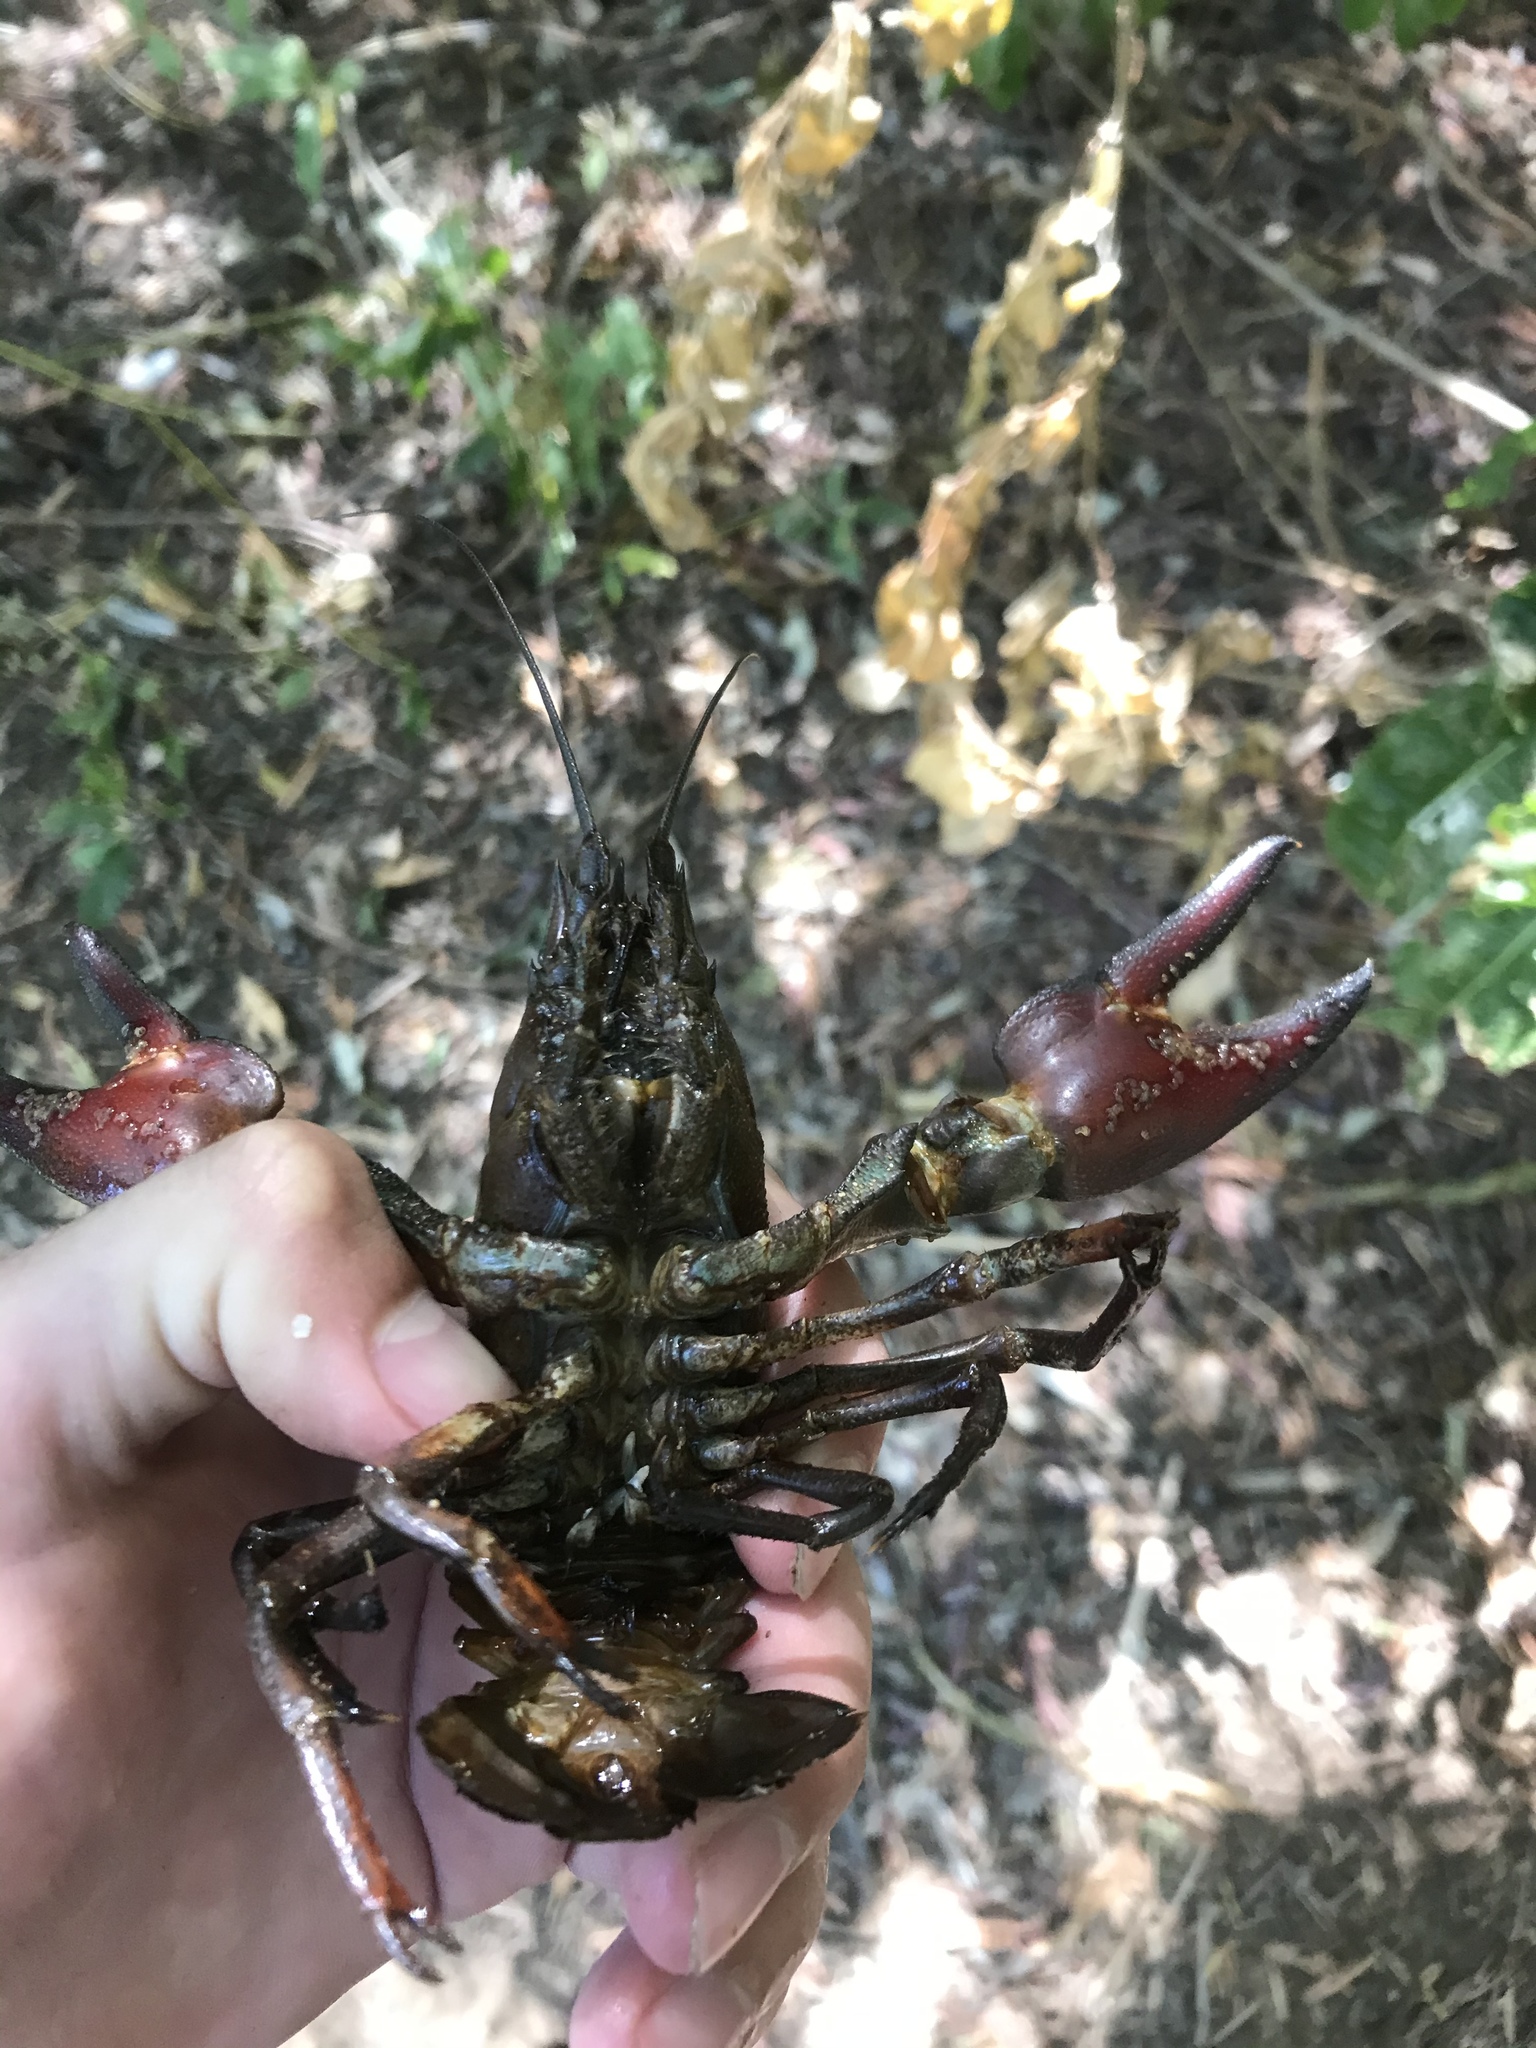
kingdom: Animalia
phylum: Arthropoda
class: Malacostraca
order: Decapoda
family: Astacidae
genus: Pacifastacus
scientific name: Pacifastacus leniusculus
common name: Signal crayfish
